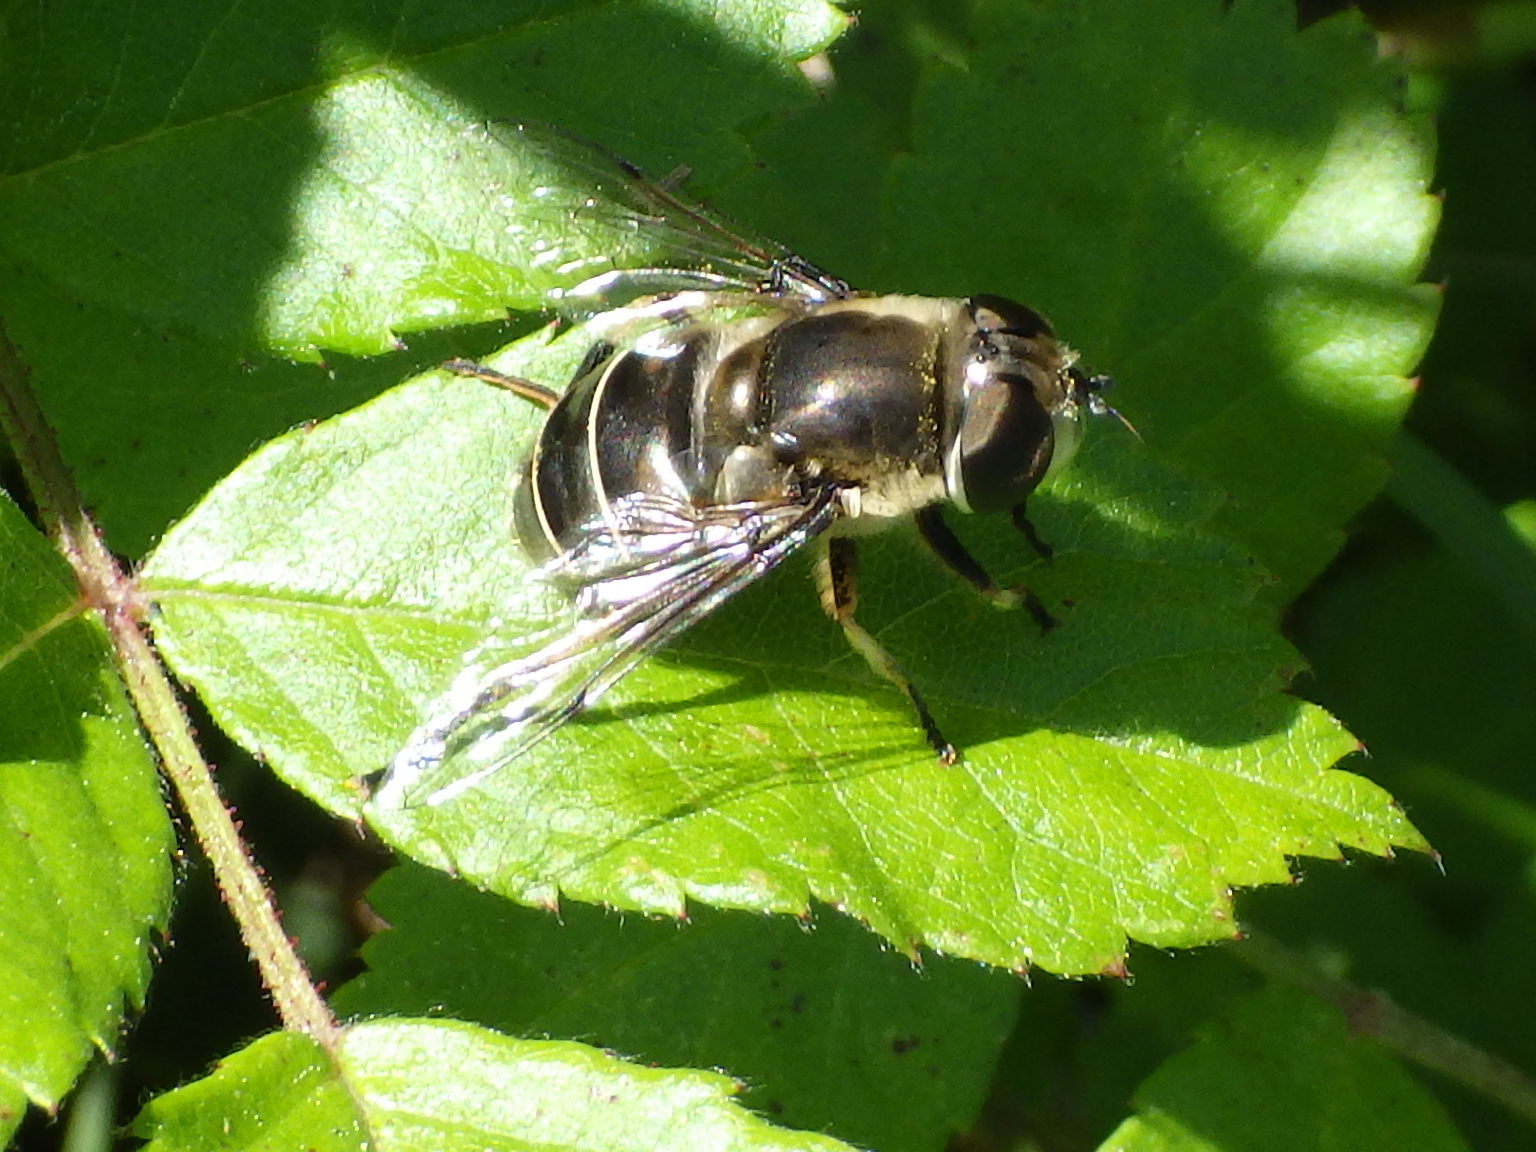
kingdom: Animalia
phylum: Arthropoda
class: Insecta
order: Diptera
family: Syrphidae
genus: Eristalis
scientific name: Eristalis dimidiata
